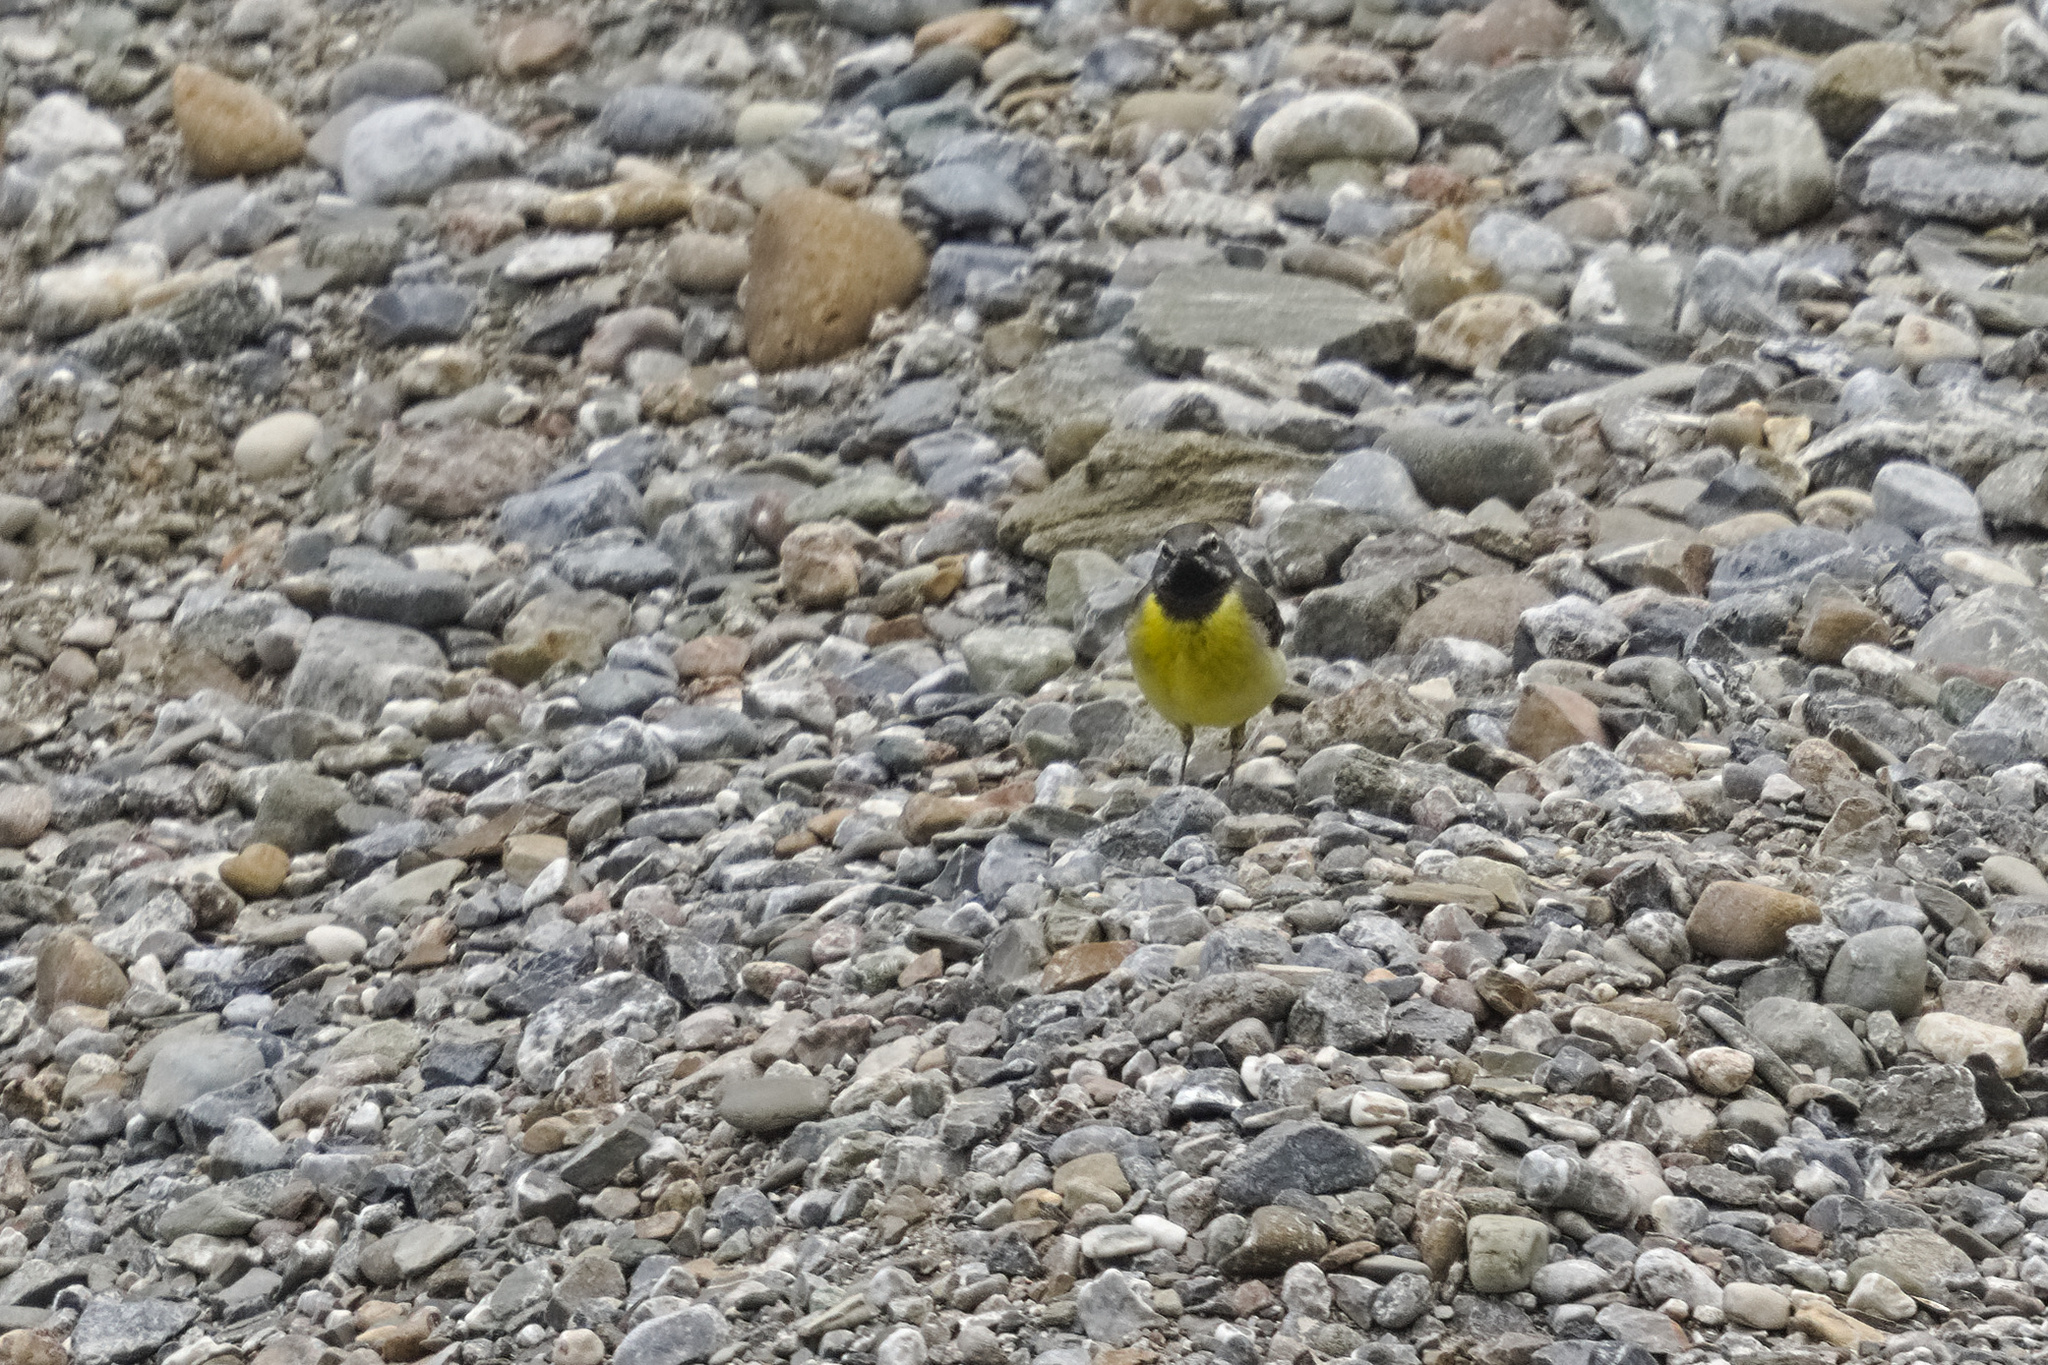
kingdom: Animalia
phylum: Chordata
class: Aves
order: Passeriformes
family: Motacillidae
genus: Motacilla
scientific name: Motacilla cinerea
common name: Grey wagtail
